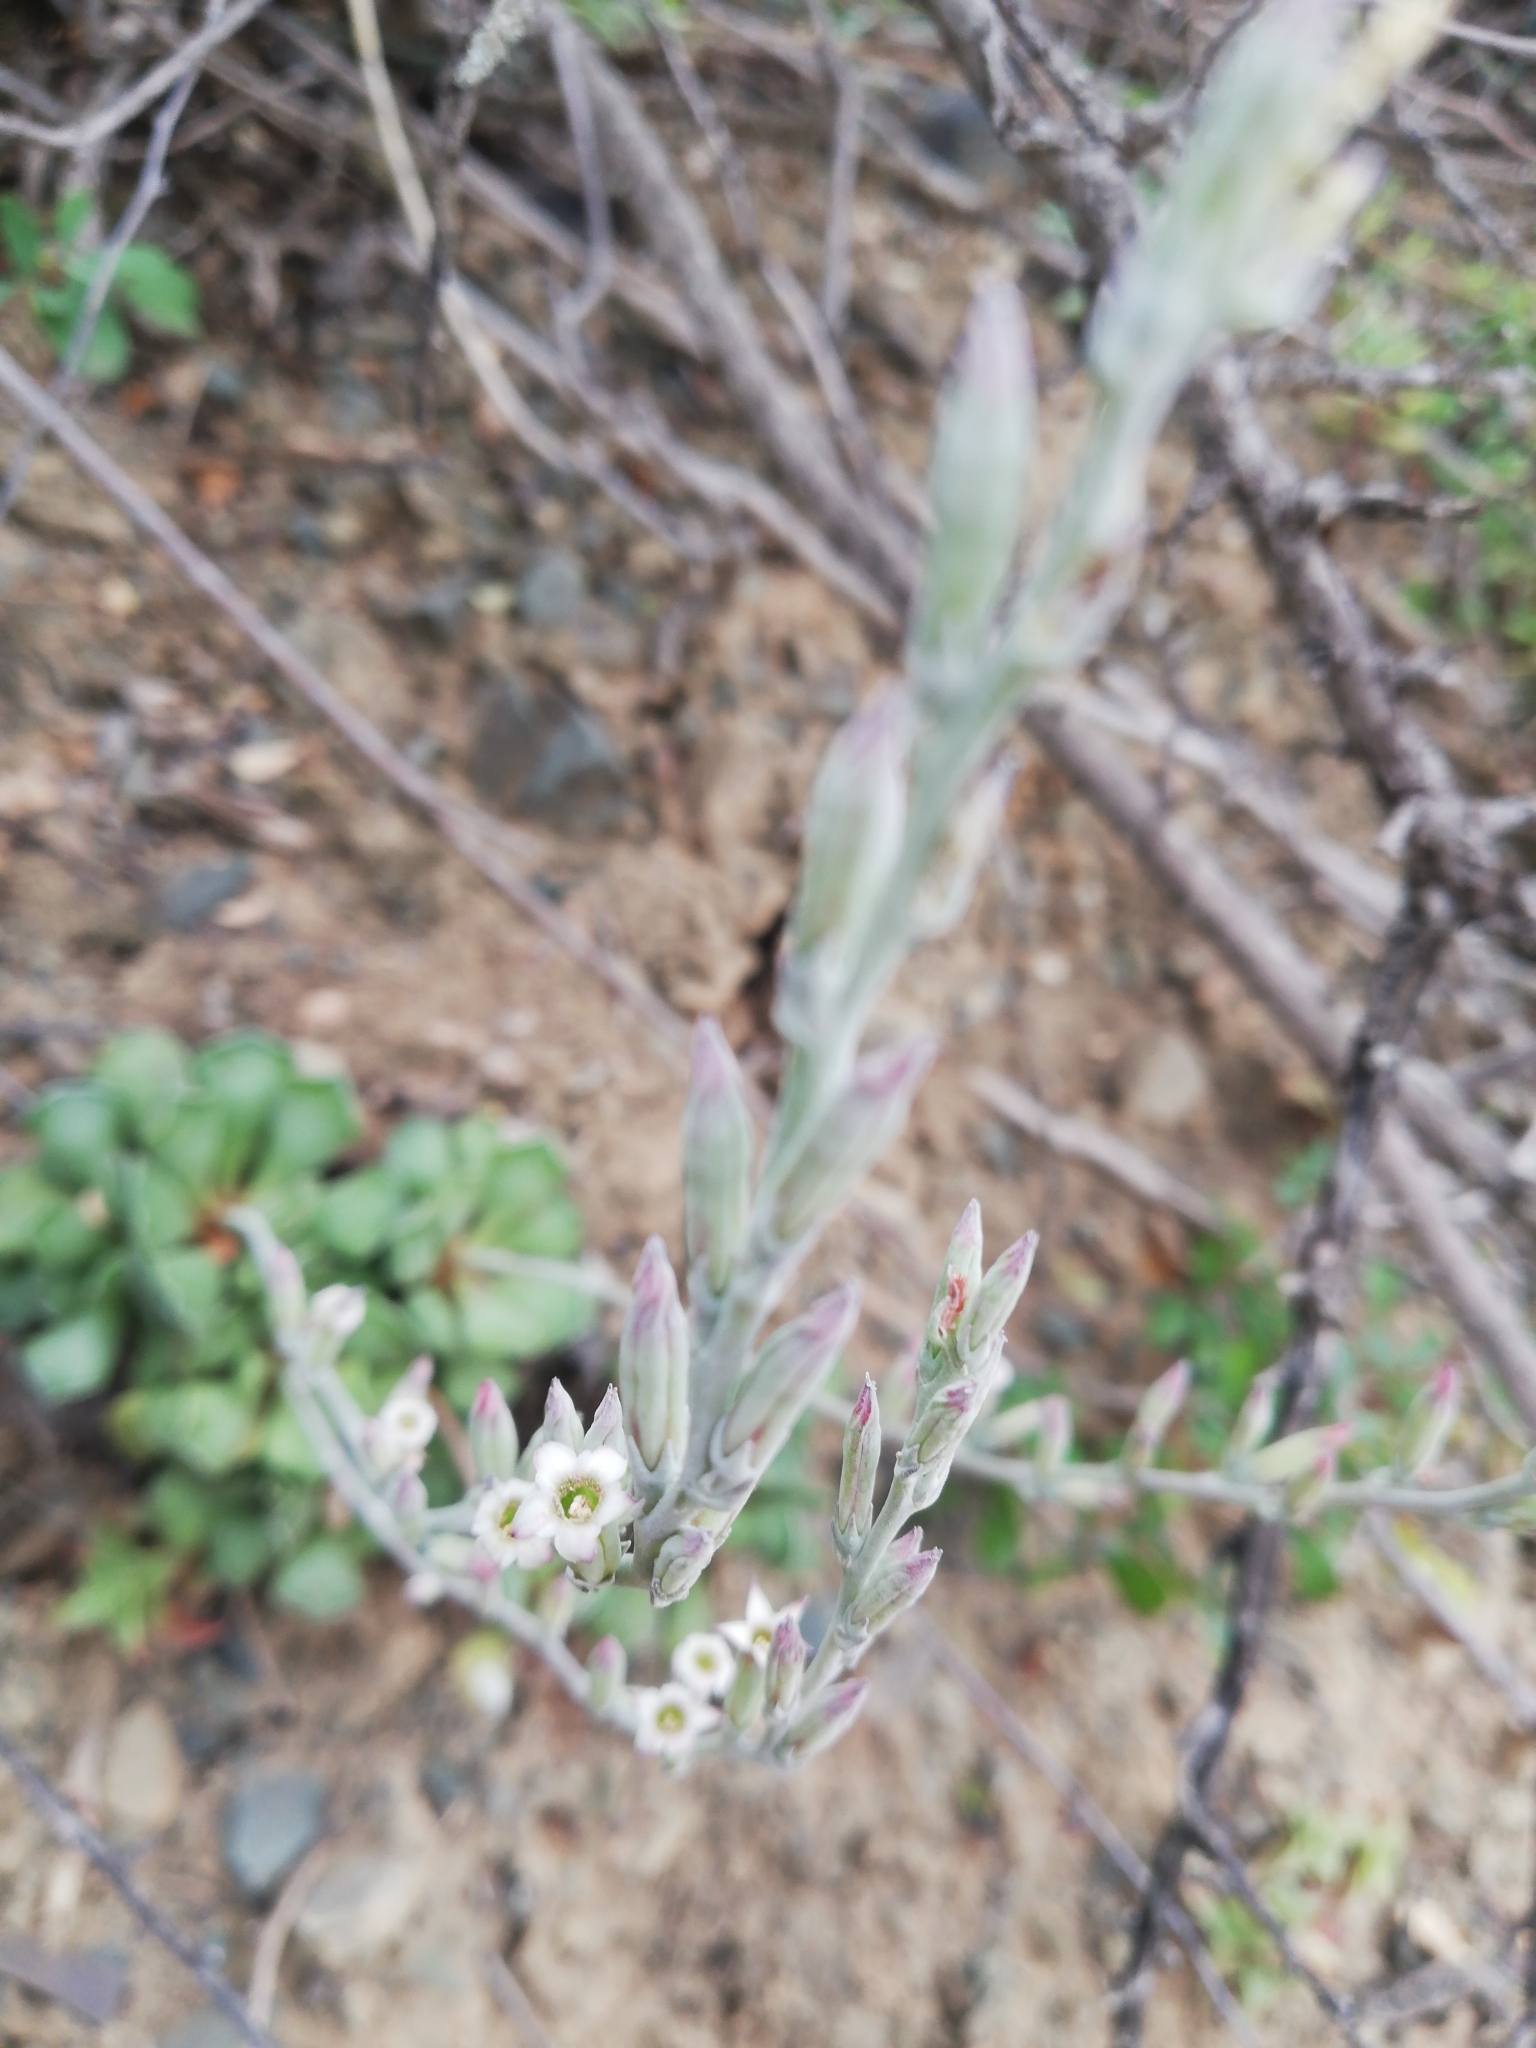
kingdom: Plantae
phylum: Tracheophyta
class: Magnoliopsida
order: Saxifragales
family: Crassulaceae
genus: Adromischus
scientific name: Adromischus cristatus
